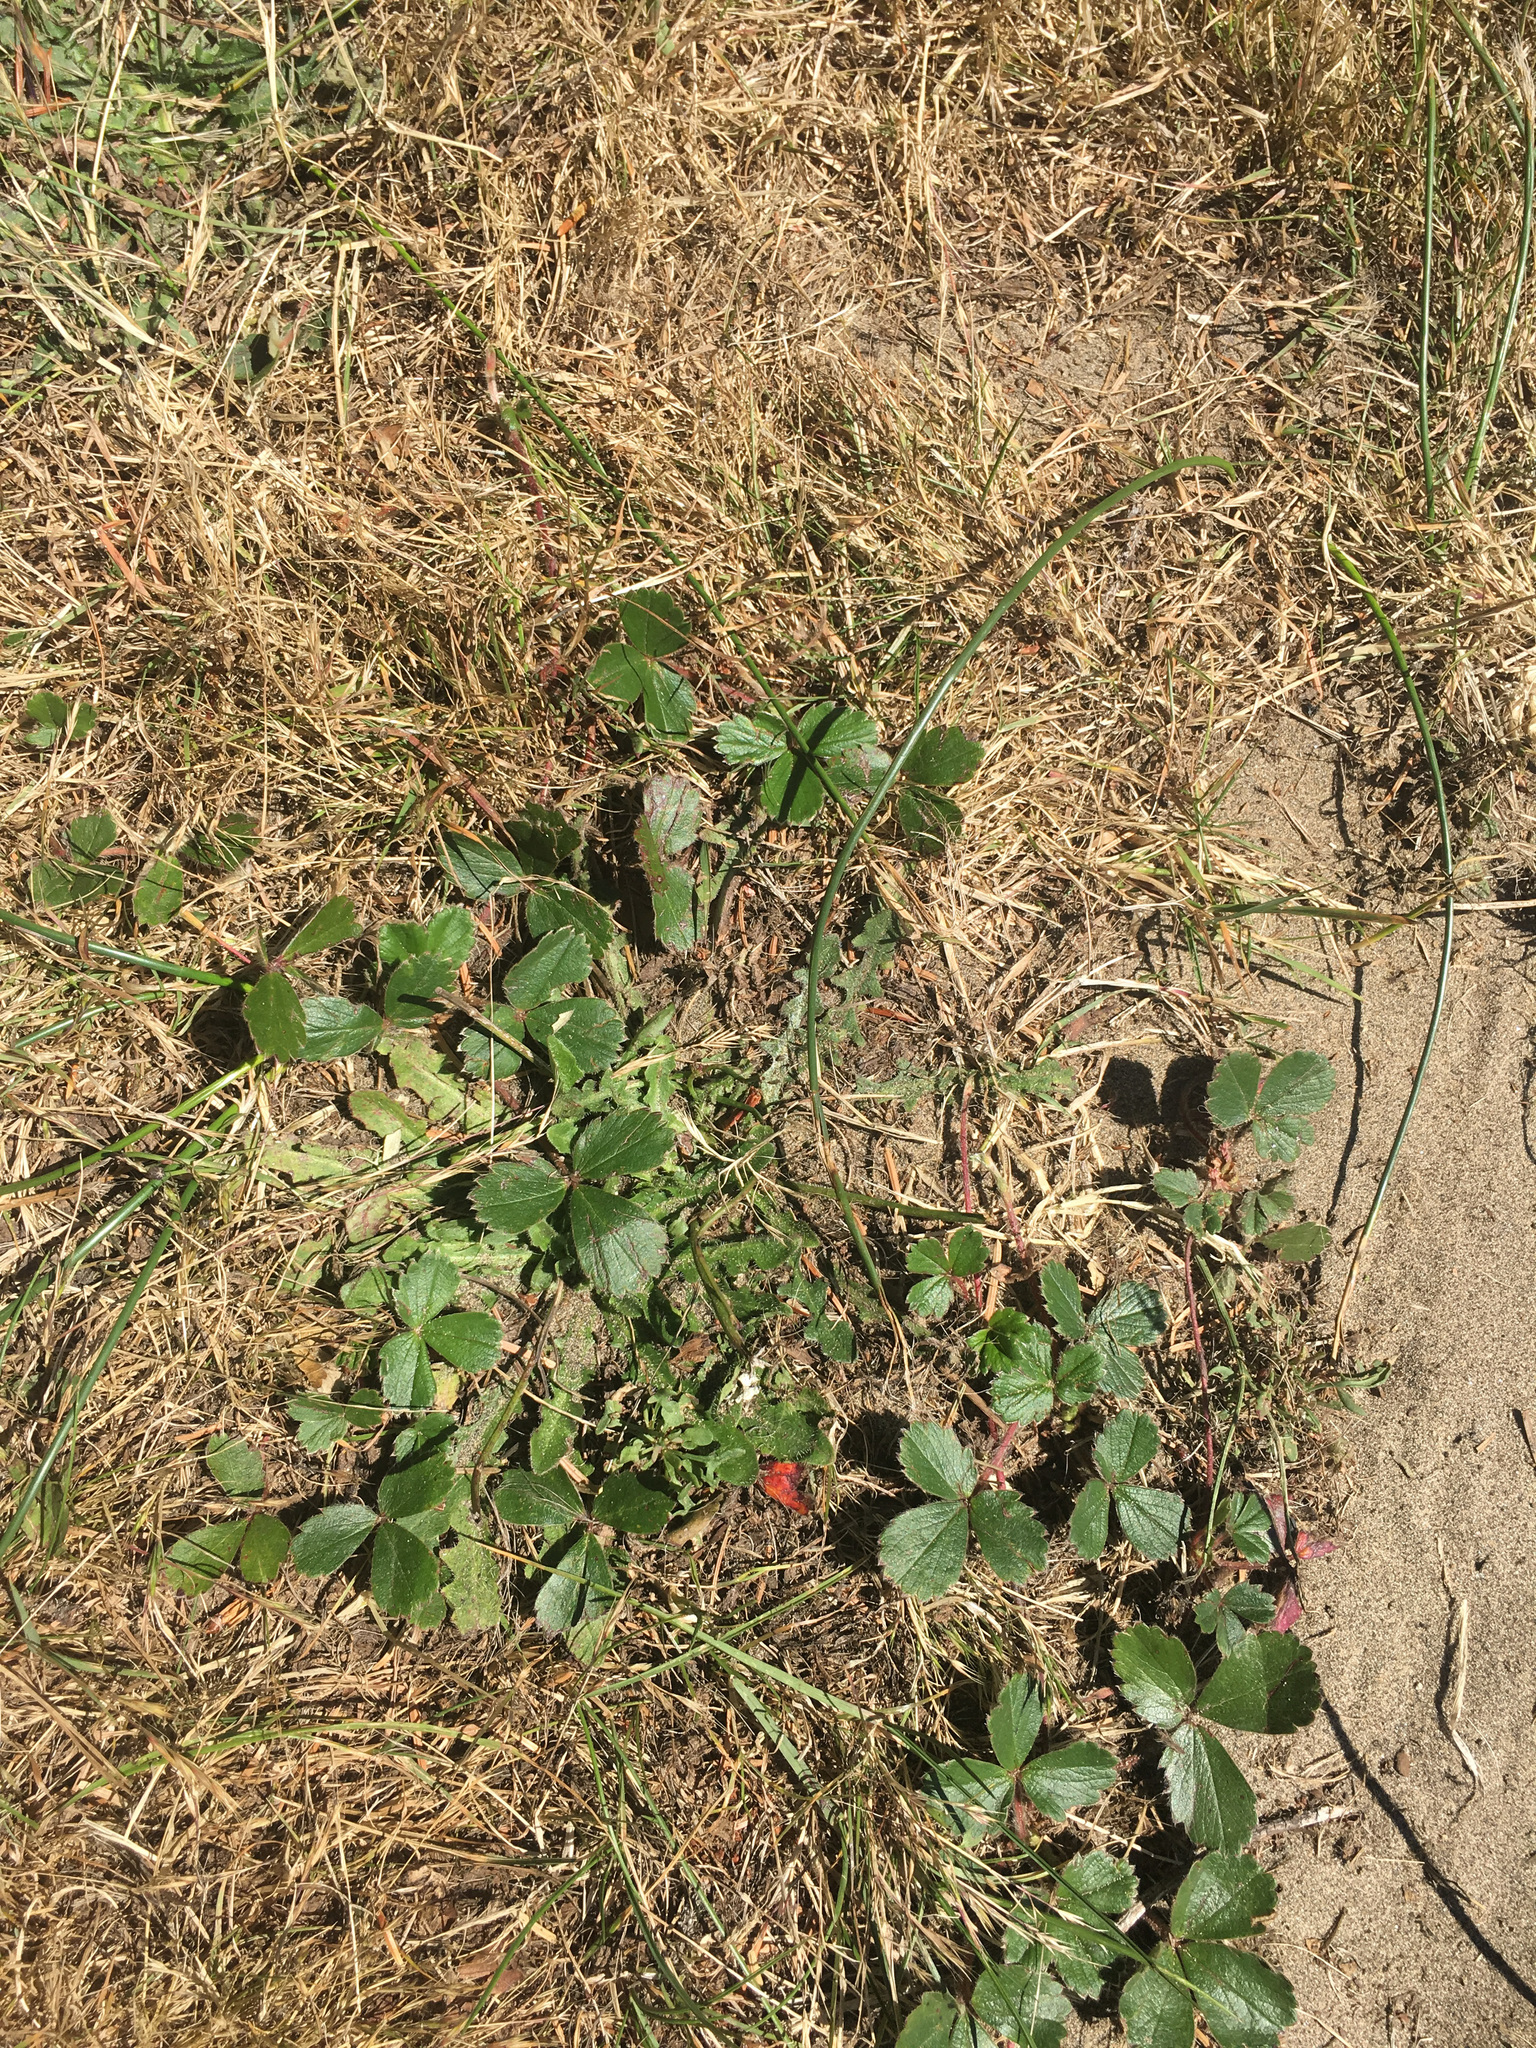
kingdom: Plantae
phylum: Tracheophyta
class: Magnoliopsida
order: Rosales
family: Rosaceae
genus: Fragaria
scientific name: Fragaria chiloensis
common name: Beach strawberry
